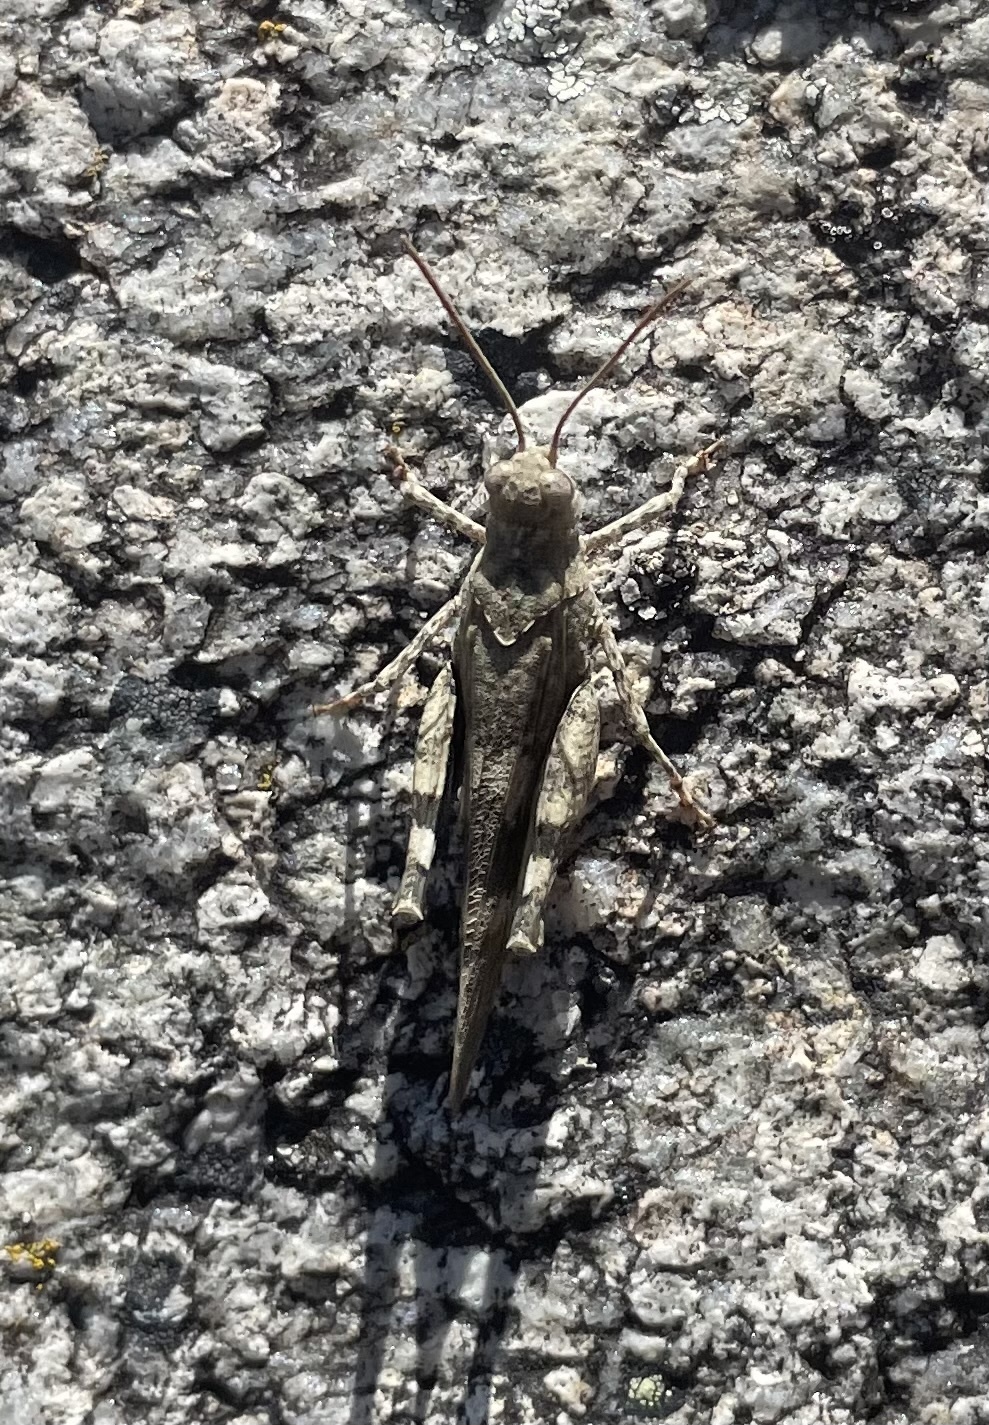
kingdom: Animalia
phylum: Arthropoda
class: Insecta
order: Orthoptera
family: Acrididae
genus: Oedipoda
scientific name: Oedipoda germanica
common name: Red band-winged grasshopper
